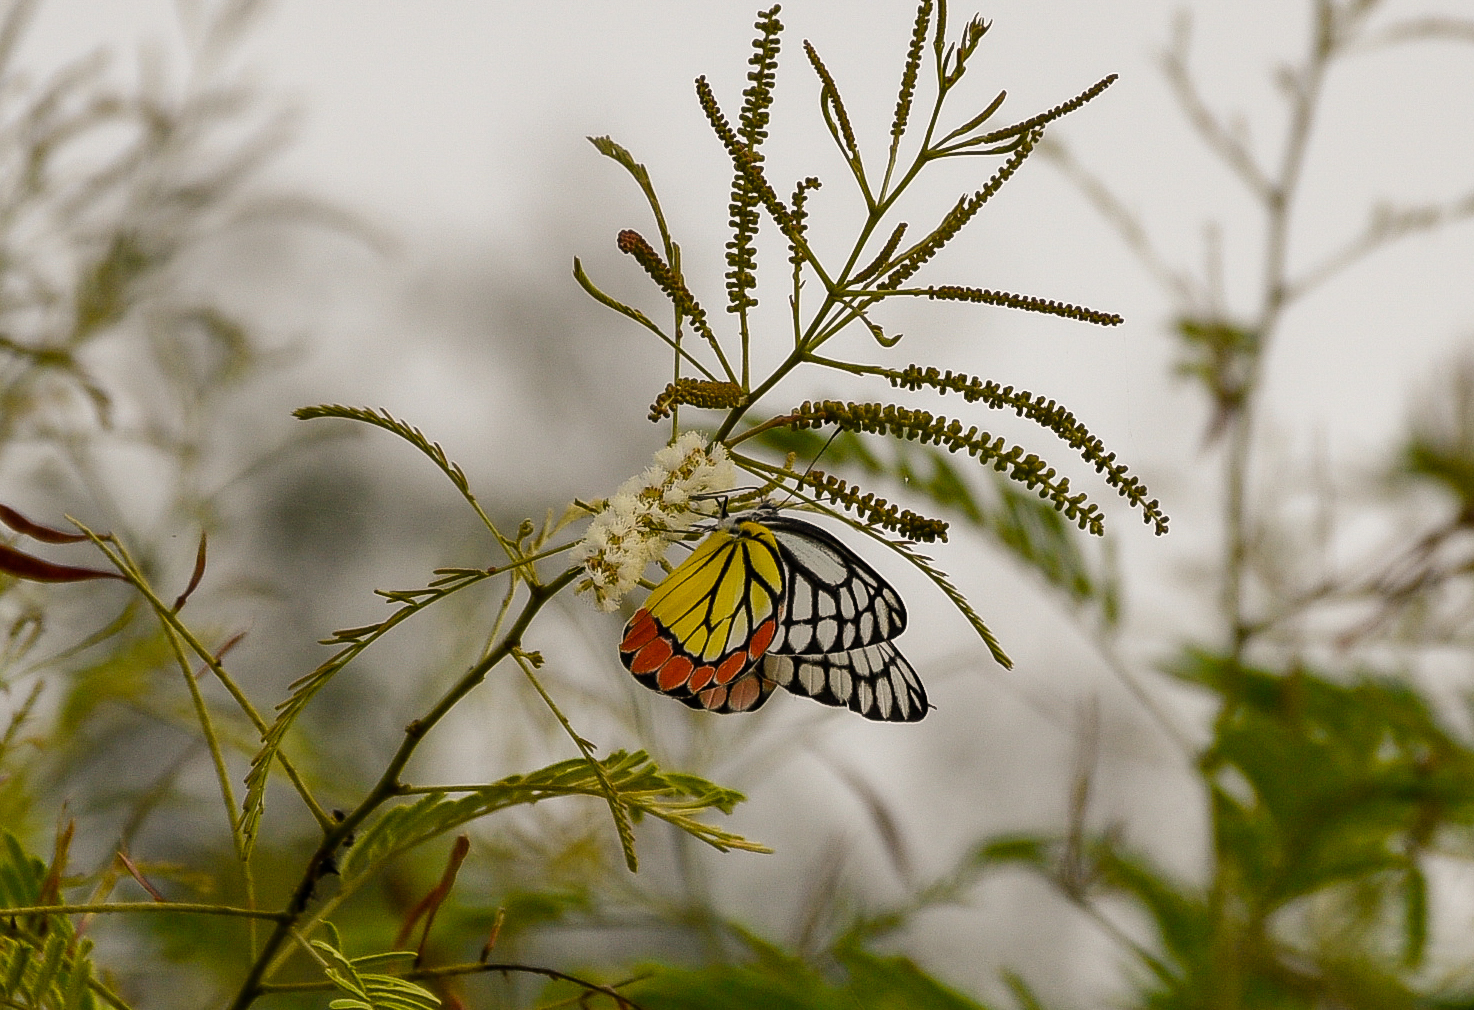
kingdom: Animalia
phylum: Arthropoda
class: Insecta
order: Lepidoptera
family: Pieridae
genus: Delias
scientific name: Delias eucharis
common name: Common jezebel
